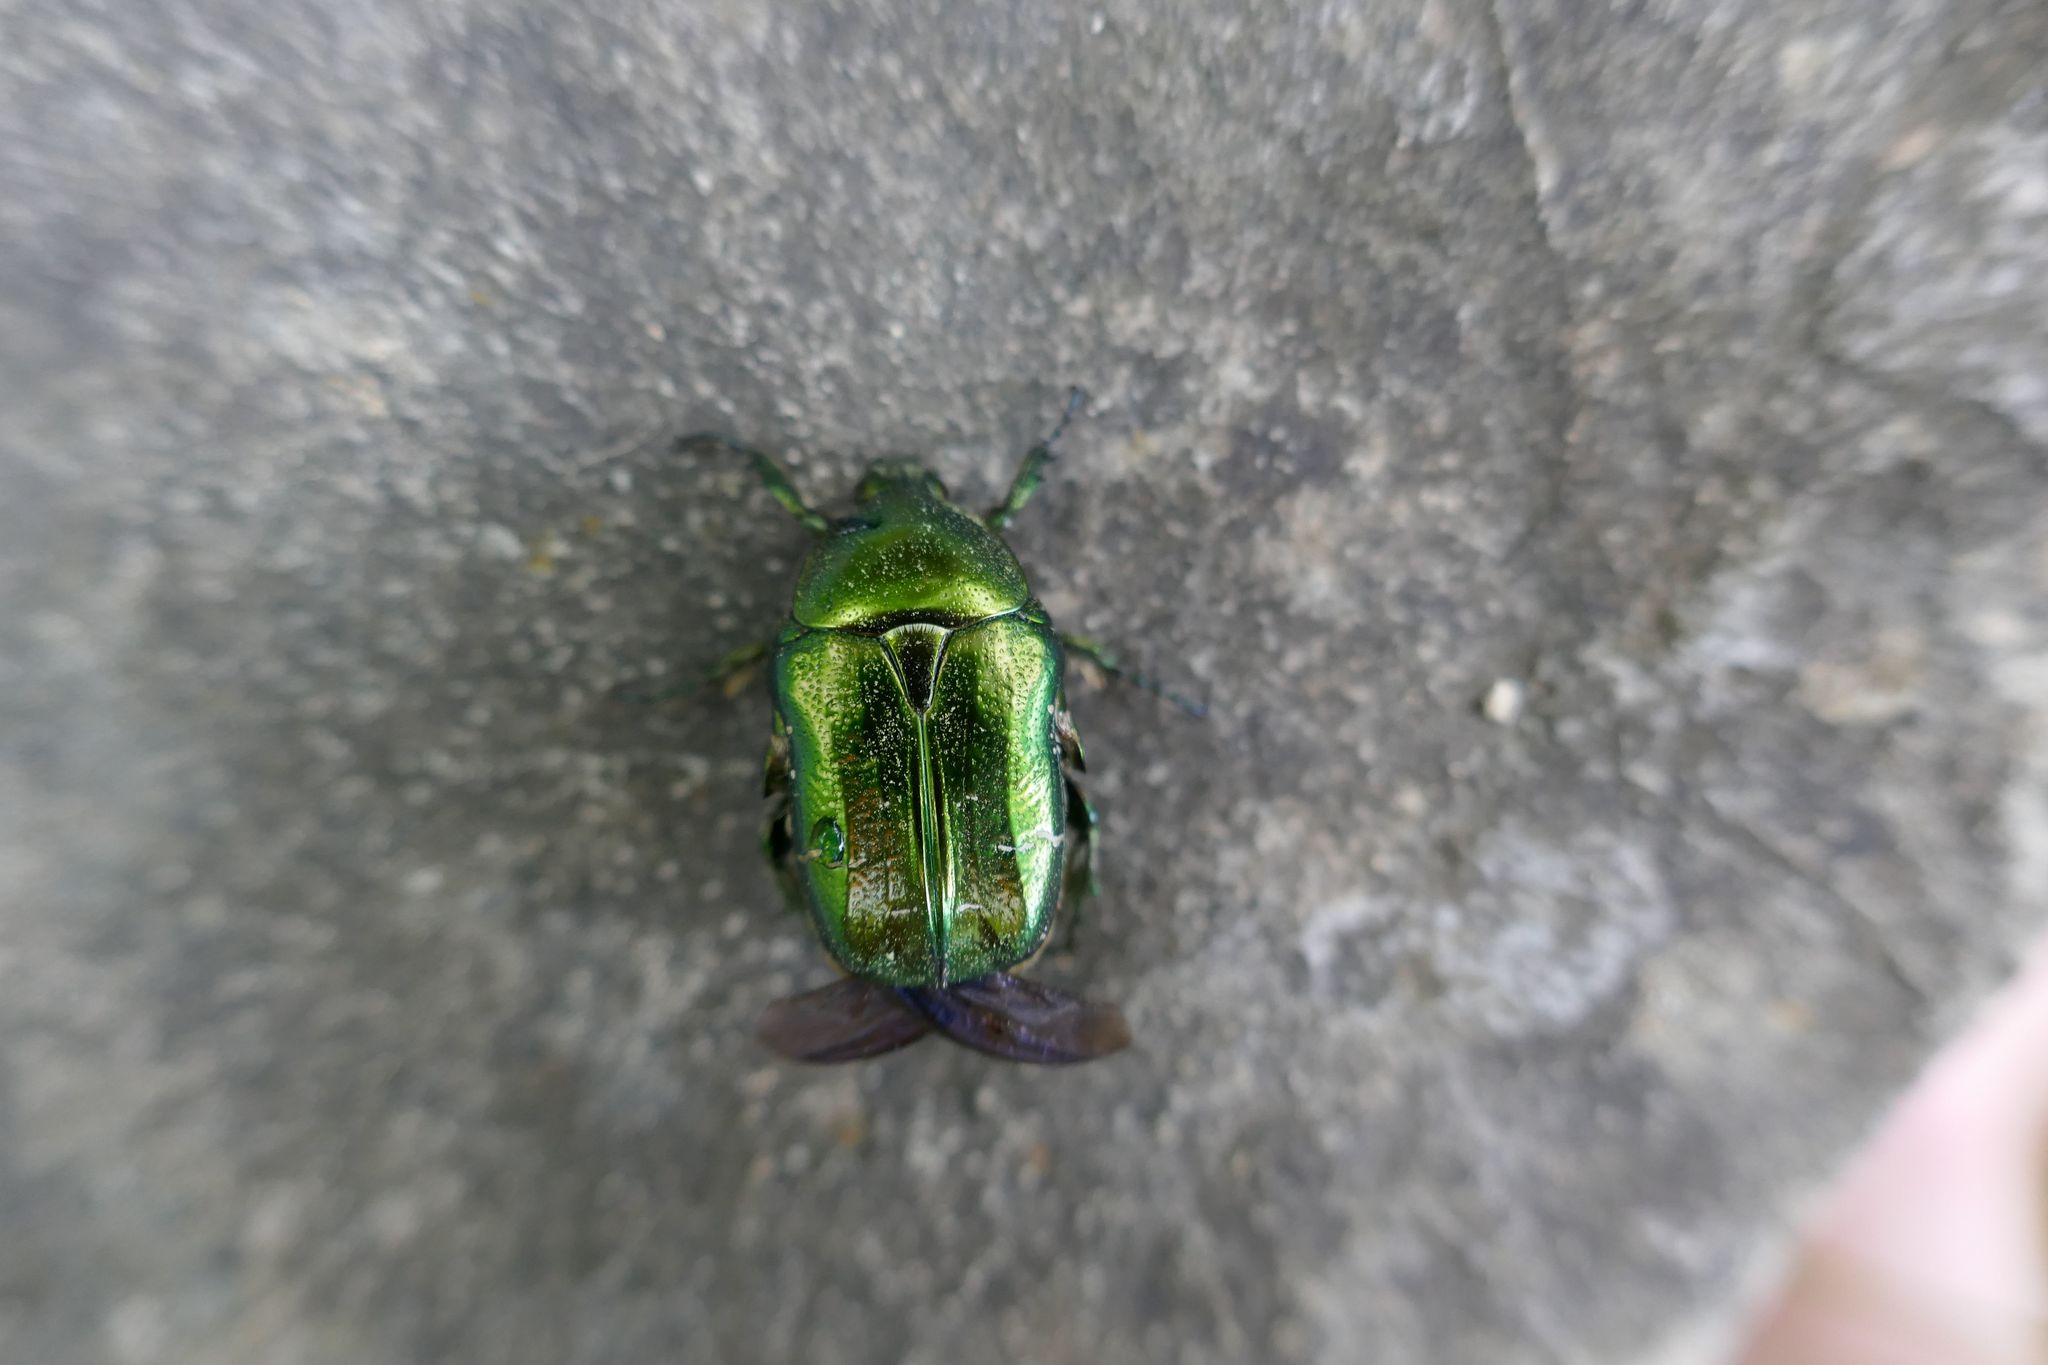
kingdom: Animalia
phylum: Arthropoda
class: Insecta
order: Coleoptera
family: Scarabaeidae
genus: Cetonia
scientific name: Cetonia aurata
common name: Rose chafer
